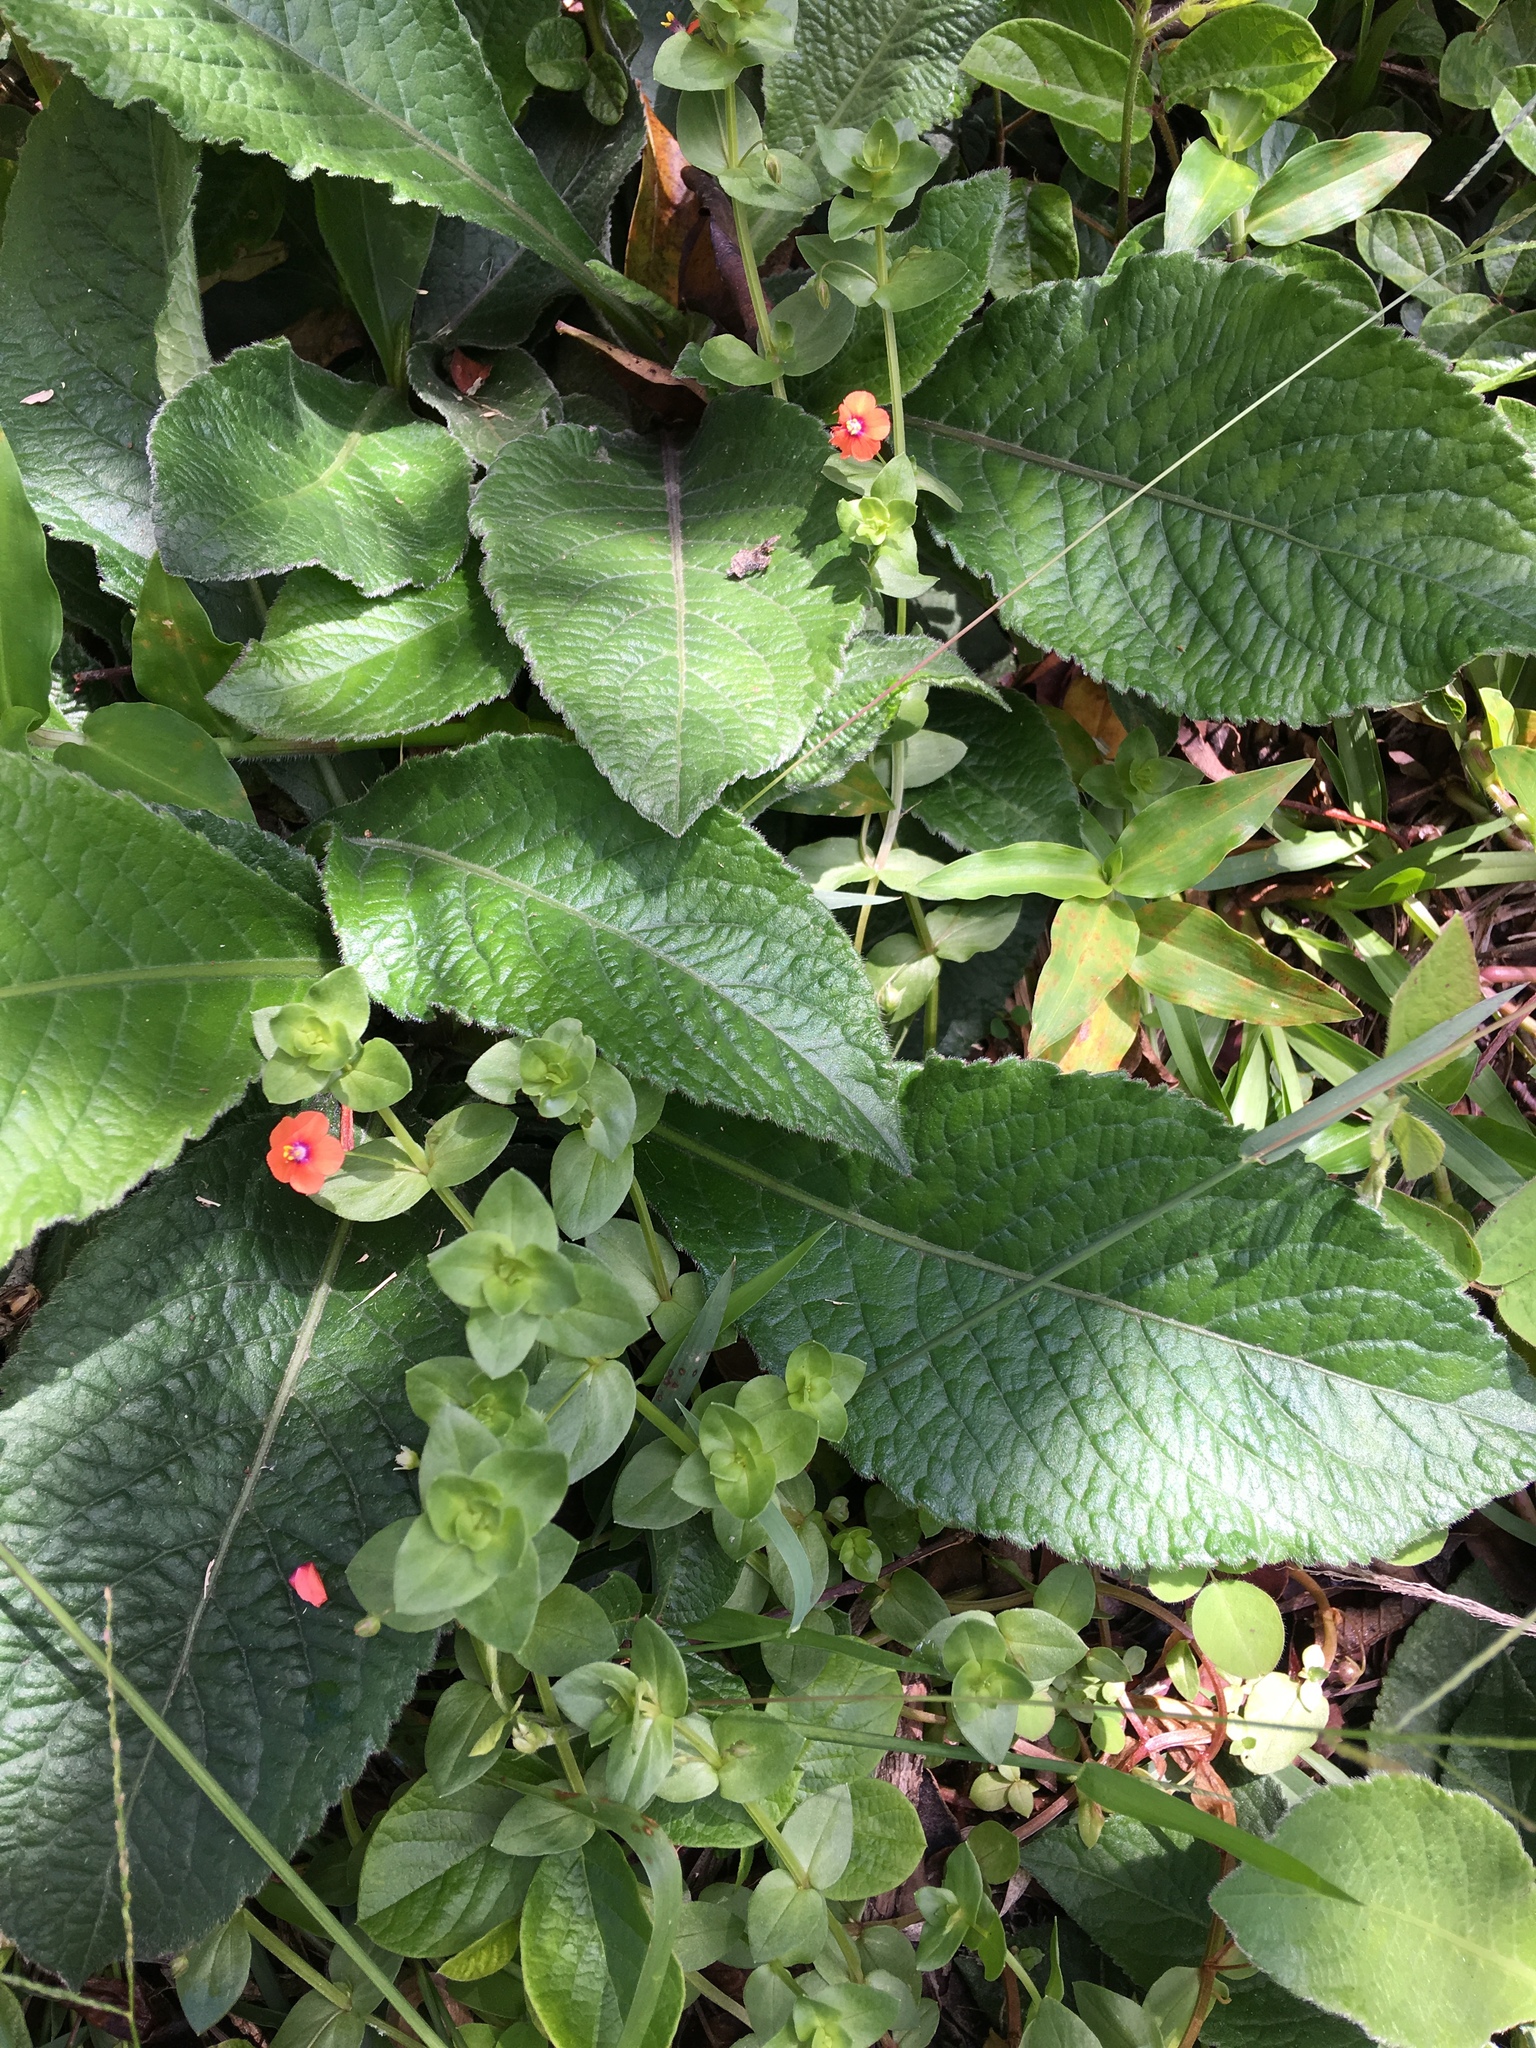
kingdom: Plantae
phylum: Tracheophyta
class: Magnoliopsida
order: Ericales
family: Primulaceae
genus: Lysimachia
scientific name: Lysimachia arvensis
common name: Scarlet pimpernel
